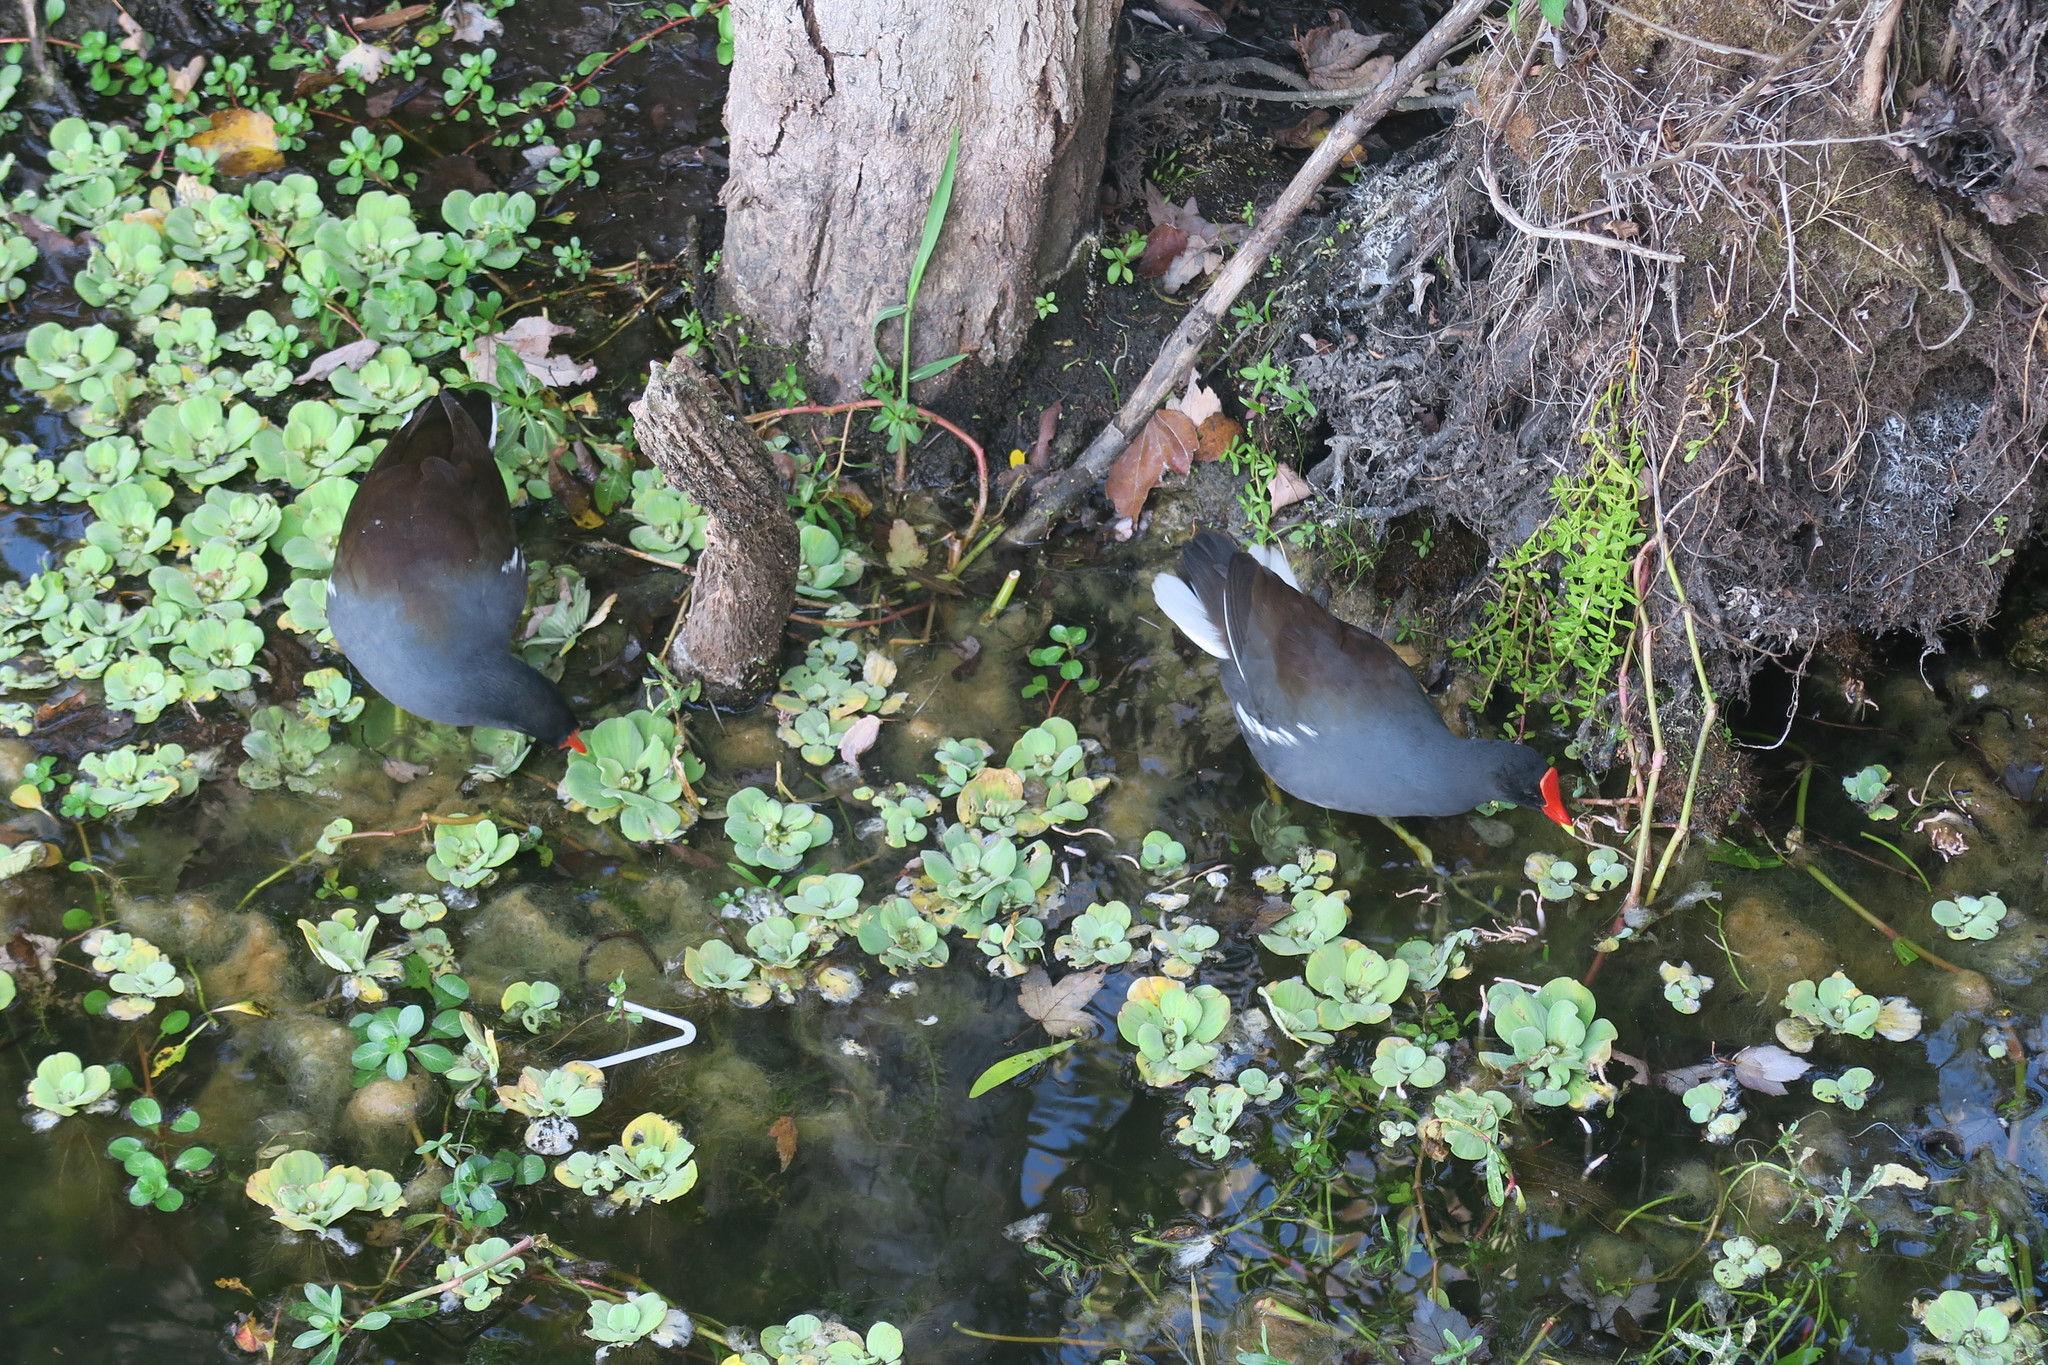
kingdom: Animalia
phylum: Chordata
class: Aves
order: Gruiformes
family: Rallidae
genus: Gallinula
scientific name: Gallinula chloropus
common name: Common moorhen
